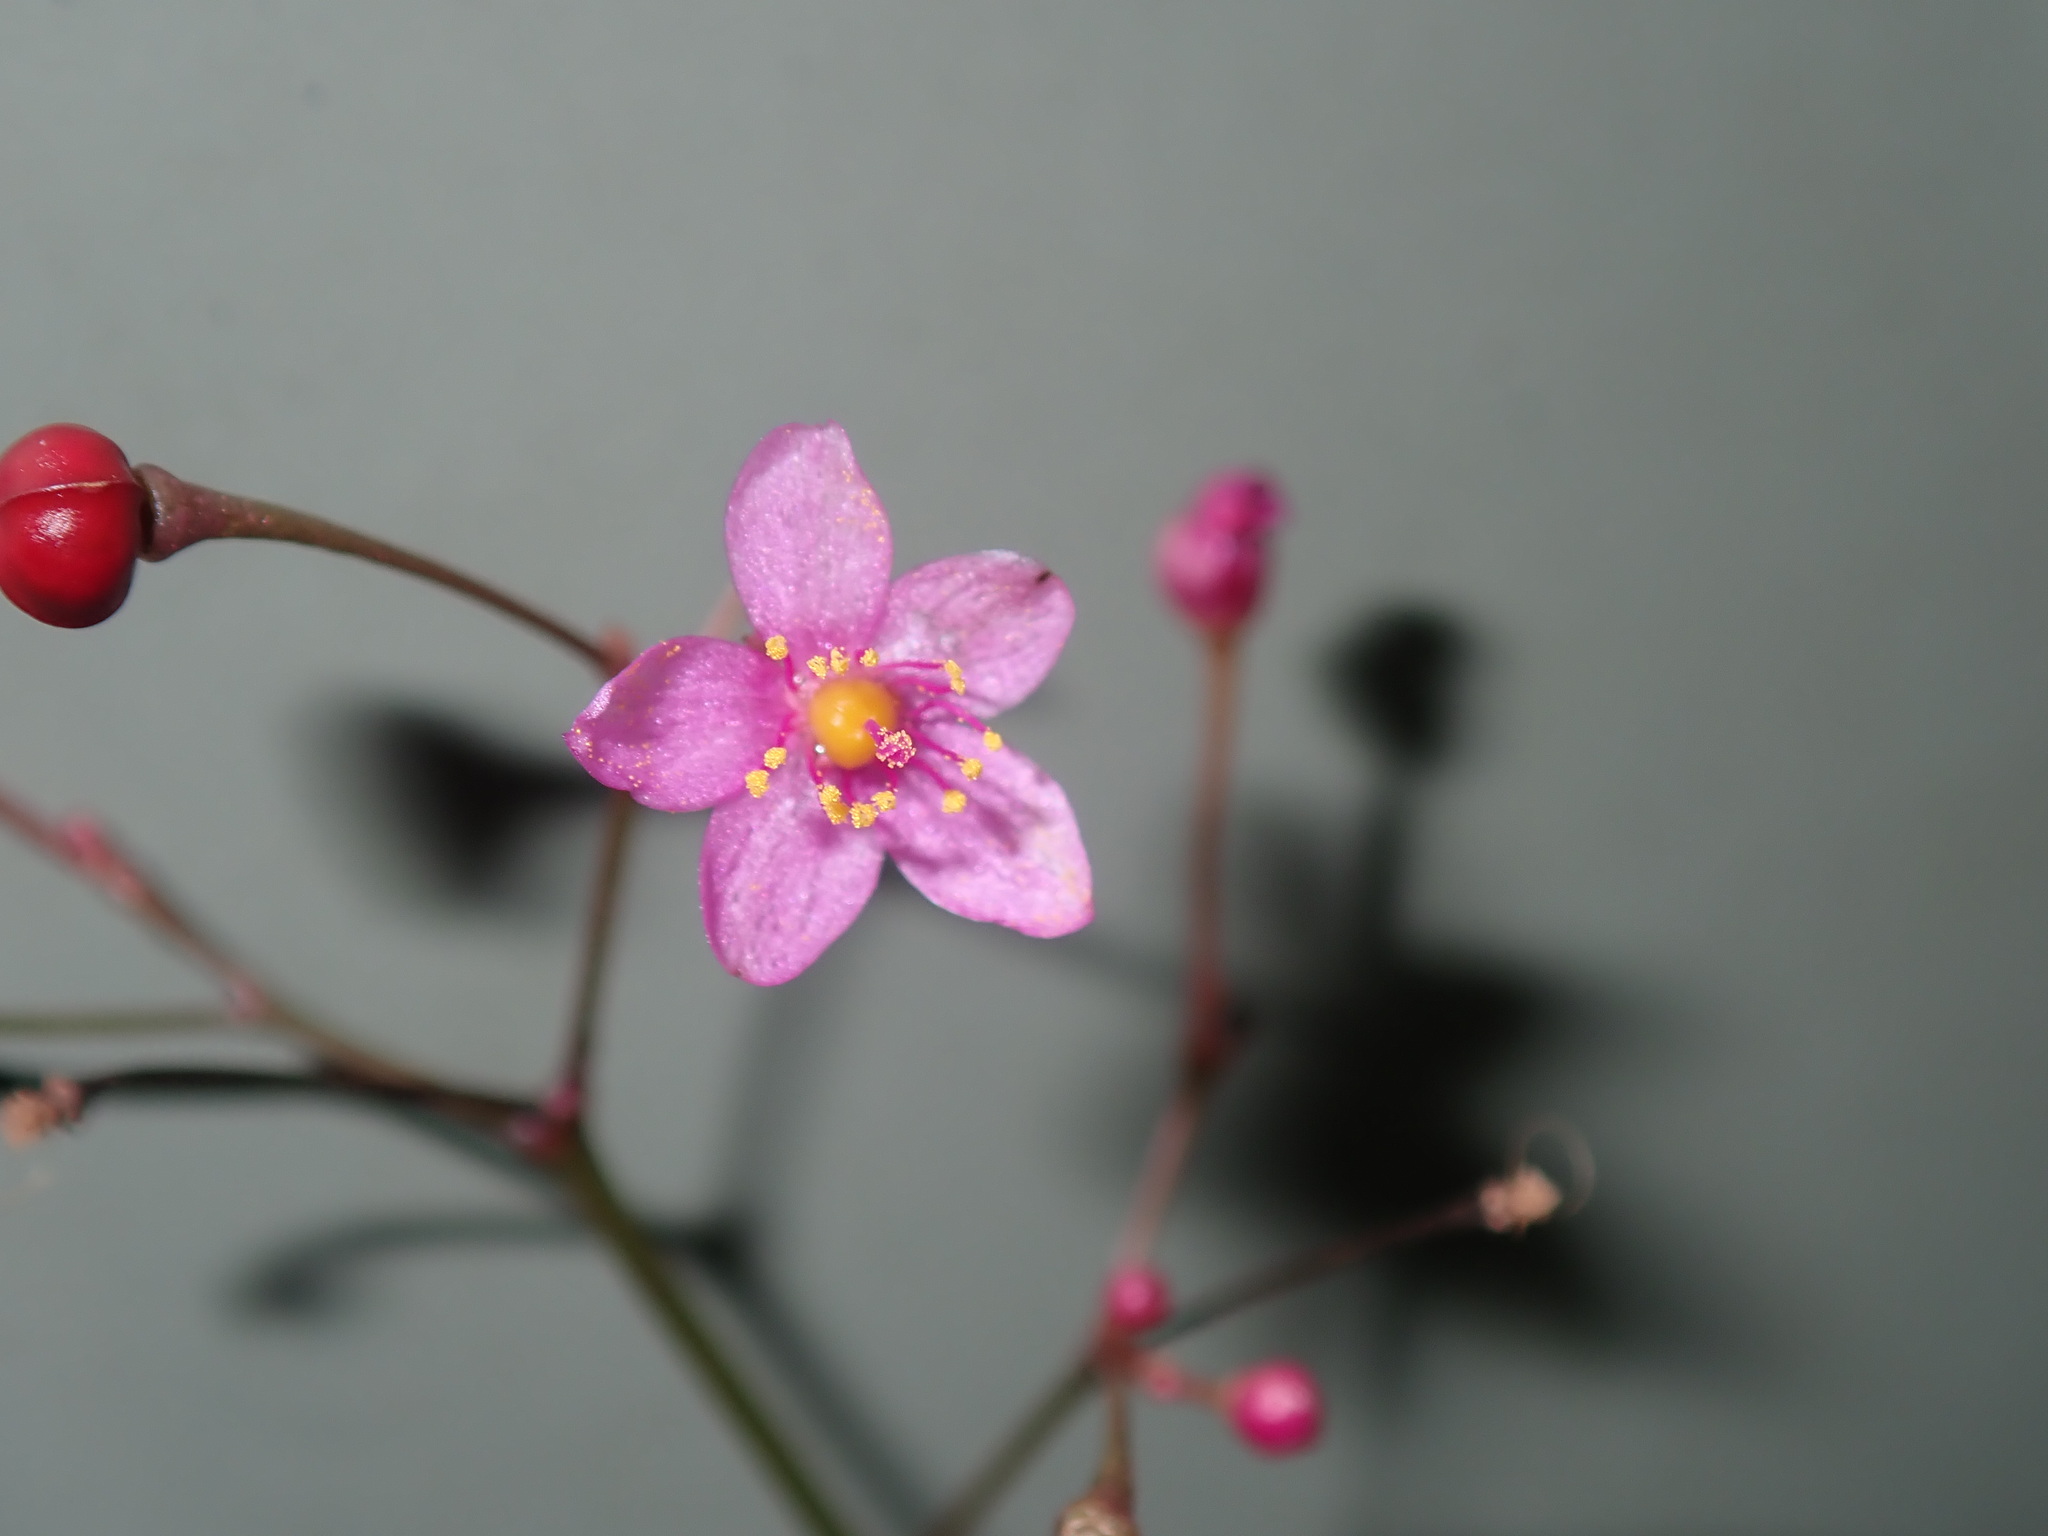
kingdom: Plantae
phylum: Tracheophyta
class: Magnoliopsida
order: Caryophyllales
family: Talinaceae
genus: Talinum
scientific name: Talinum paniculatum
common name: Jewels of opar
